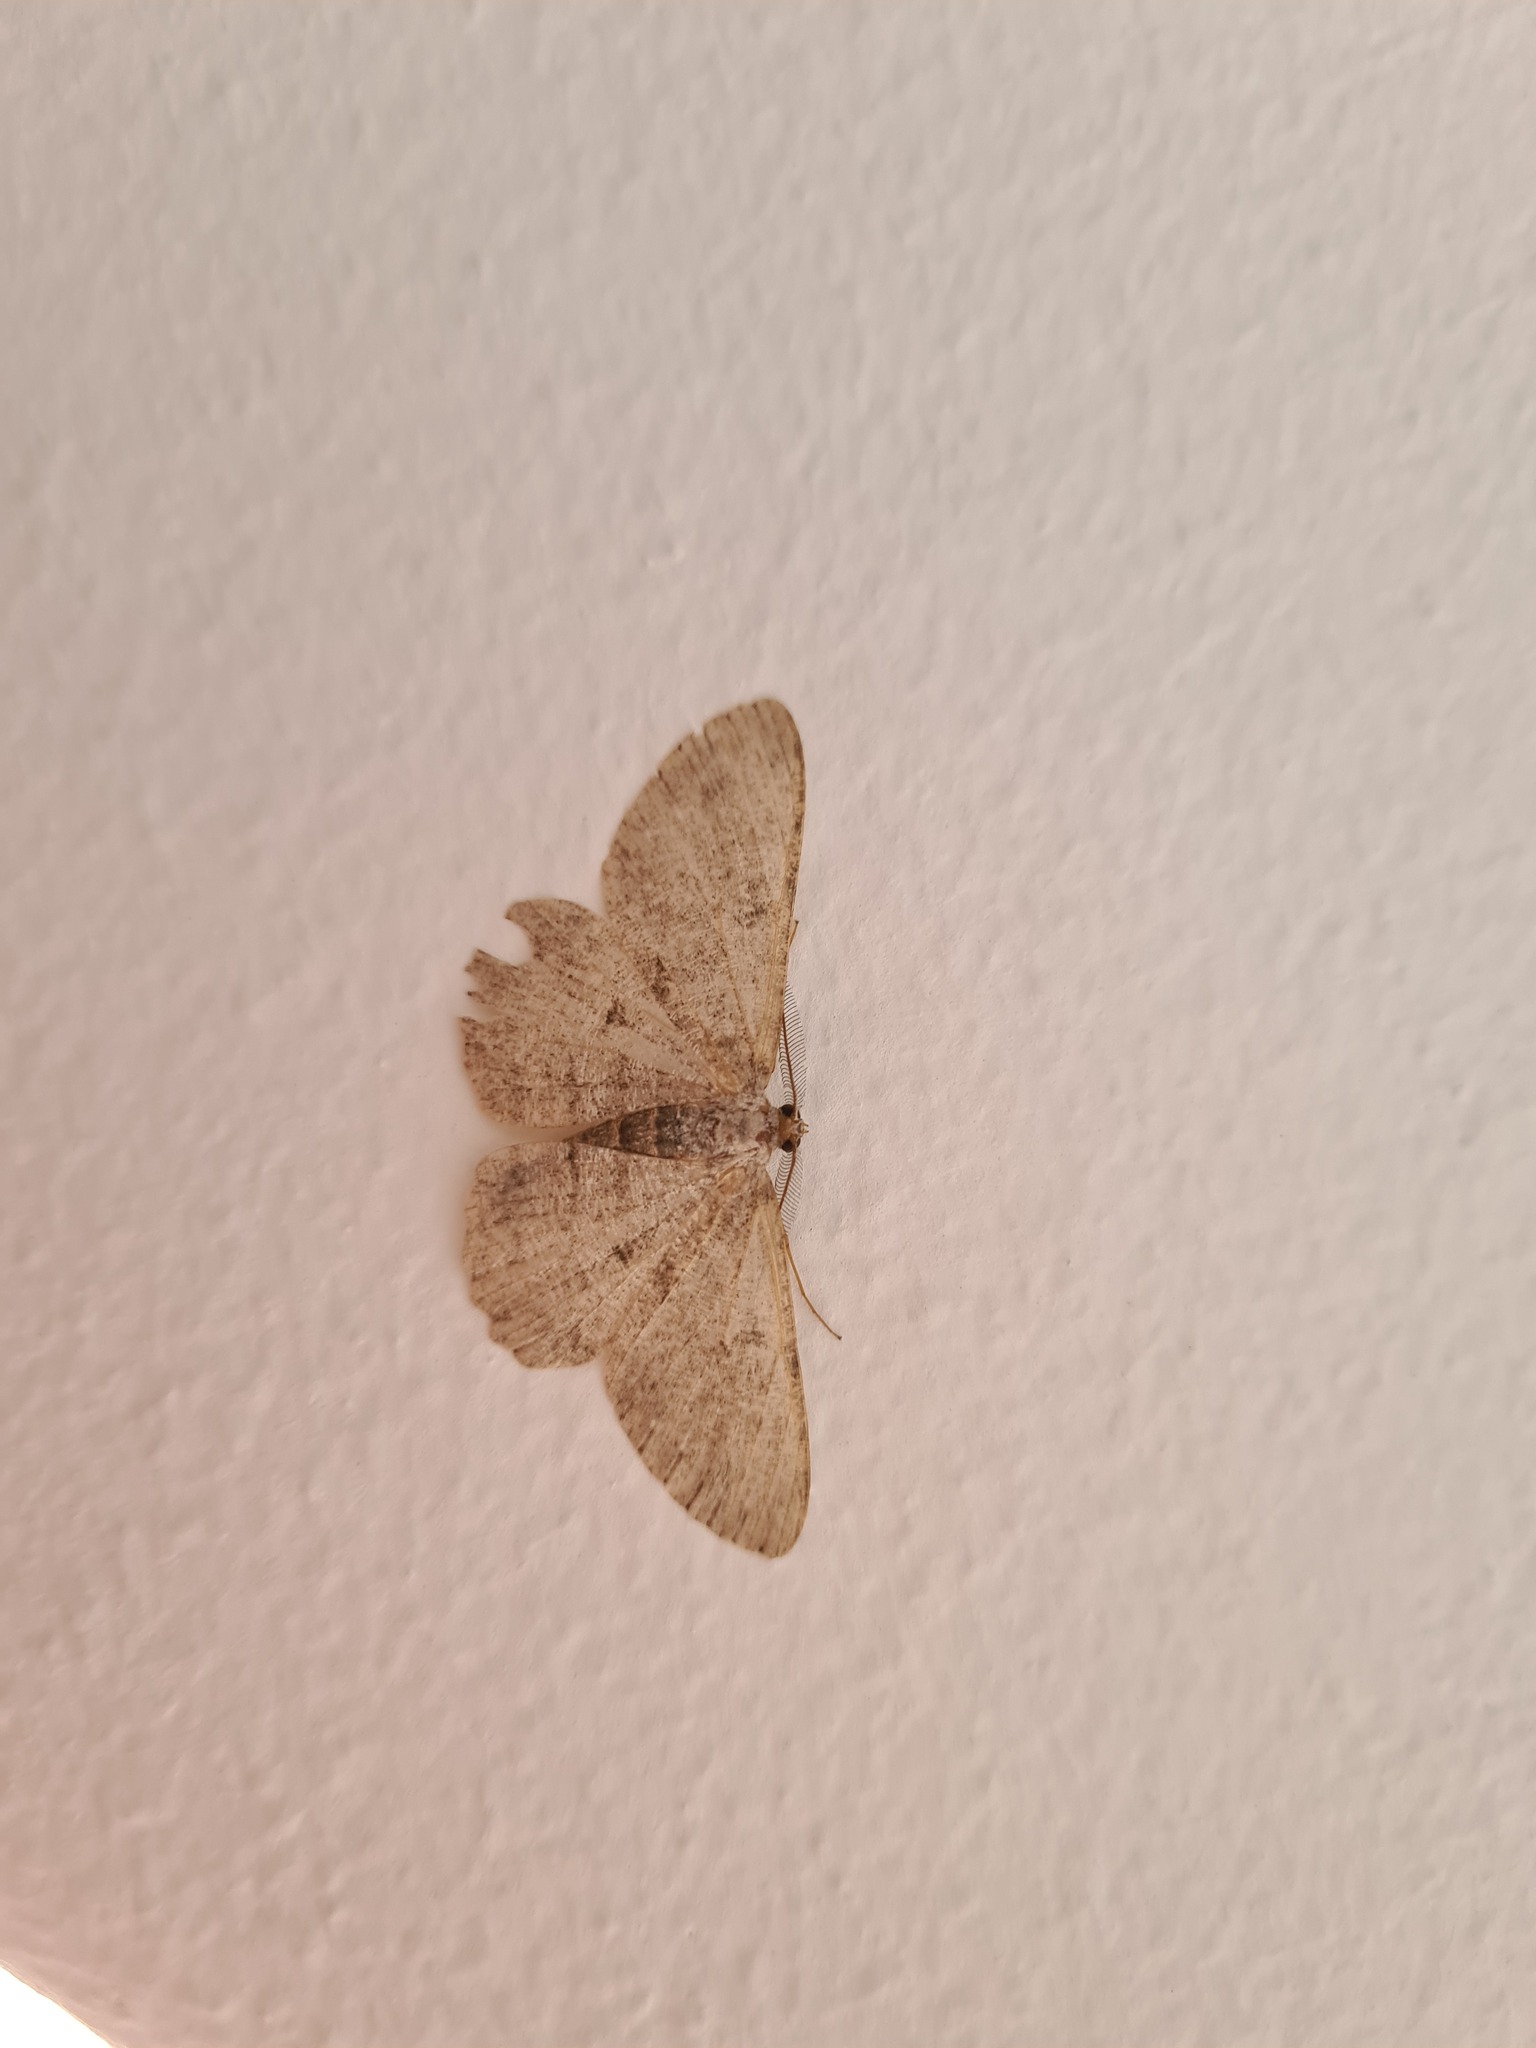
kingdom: Animalia
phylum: Arthropoda
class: Insecta
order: Lepidoptera
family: Geometridae
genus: Hypomecis
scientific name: Hypomecis punctinalis
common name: Pale oak beauty
